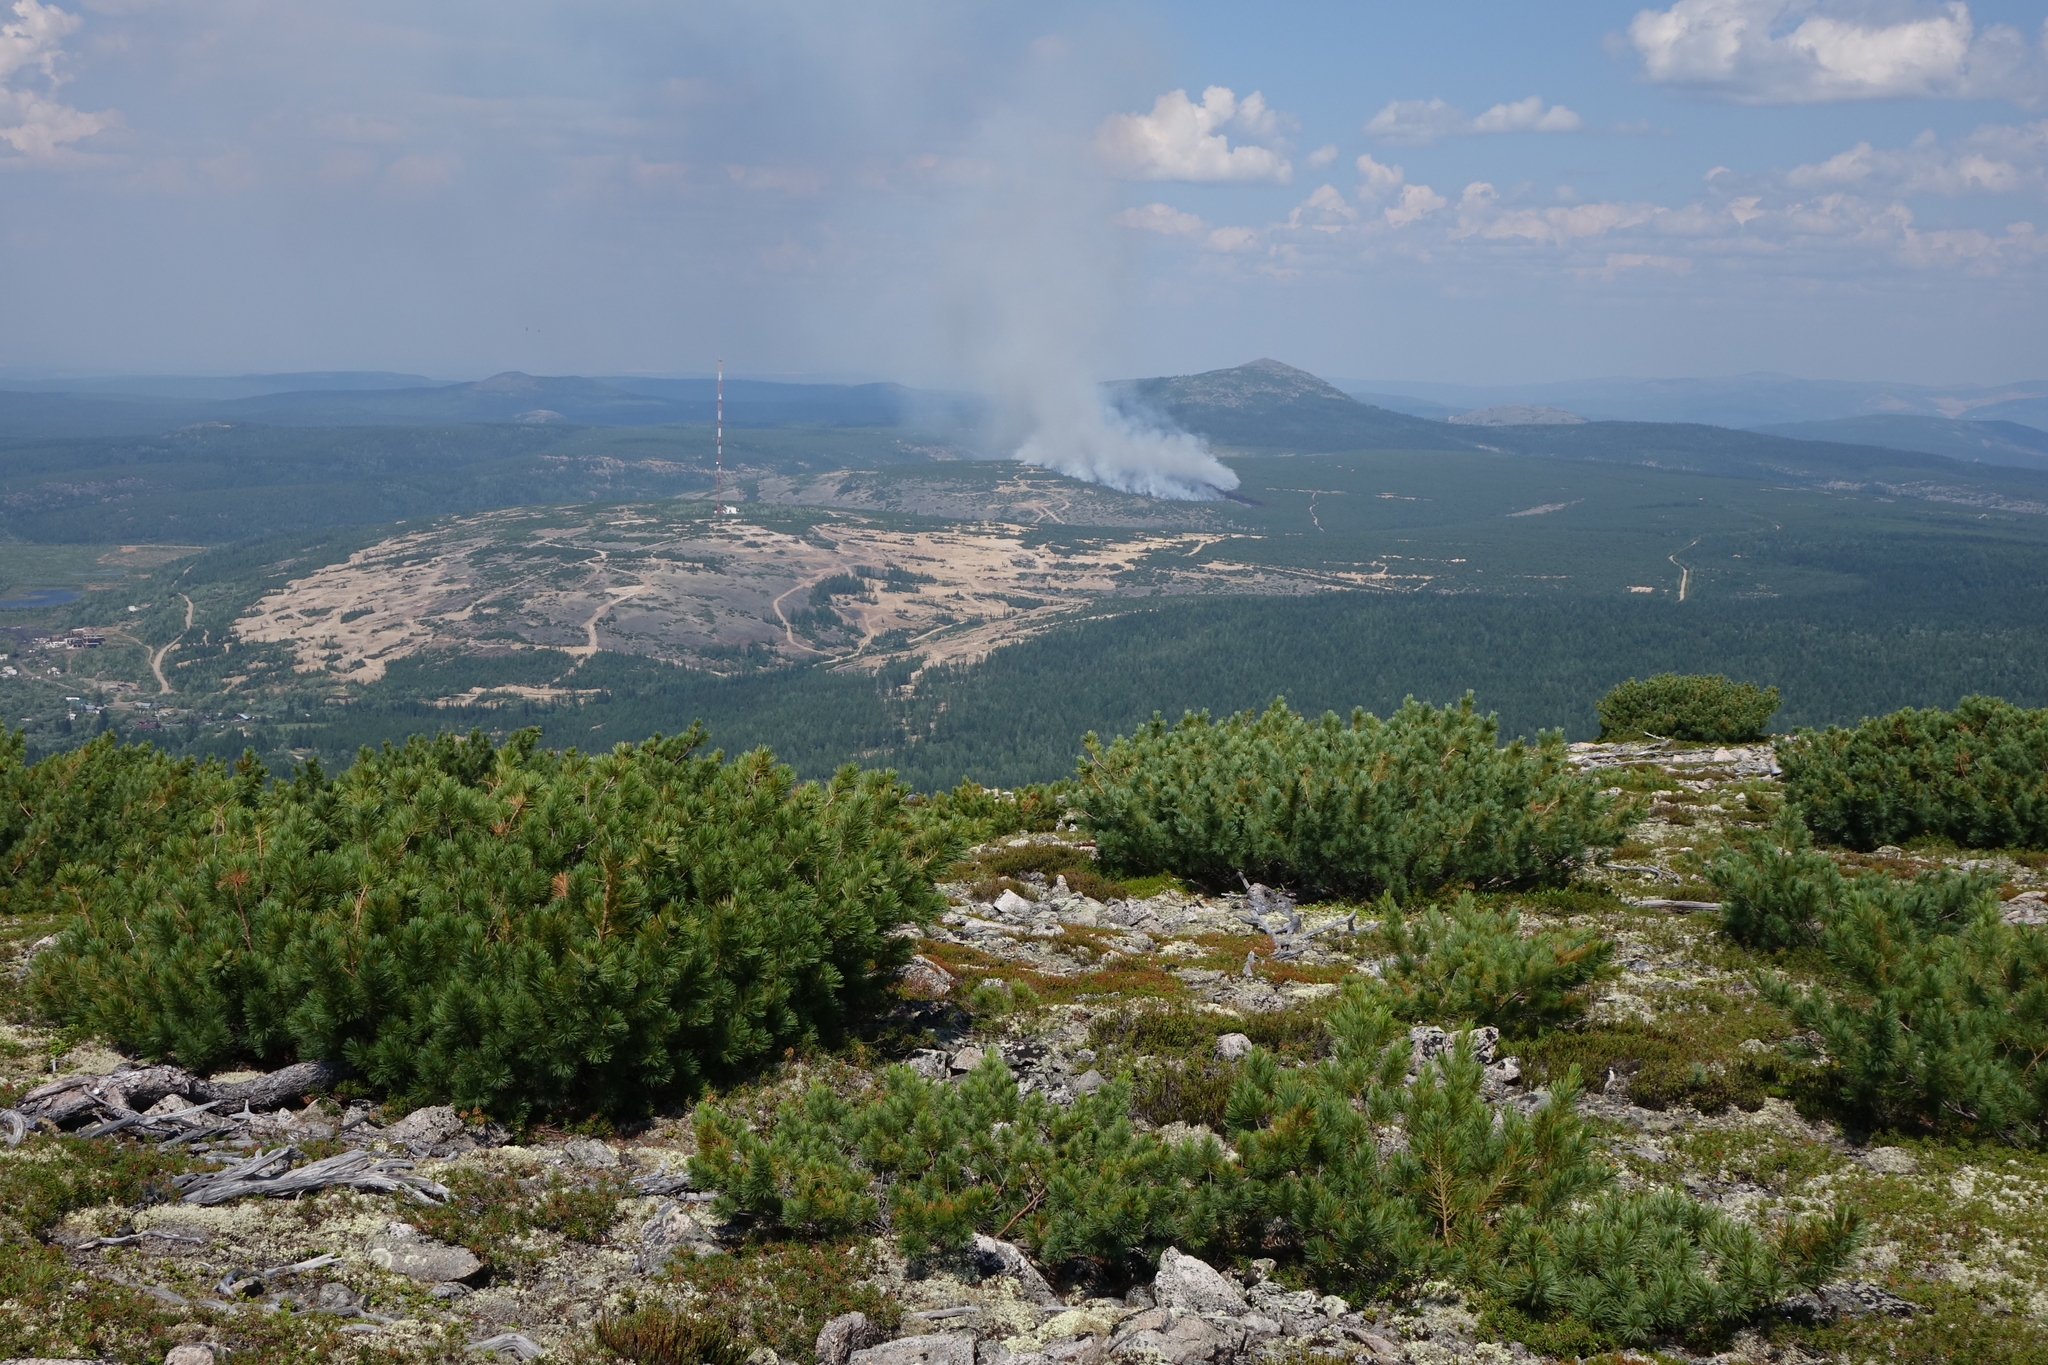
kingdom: Plantae
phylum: Tracheophyta
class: Pinopsida
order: Pinales
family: Pinaceae
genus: Pinus
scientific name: Pinus pumila
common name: Dwarf siberian pine
